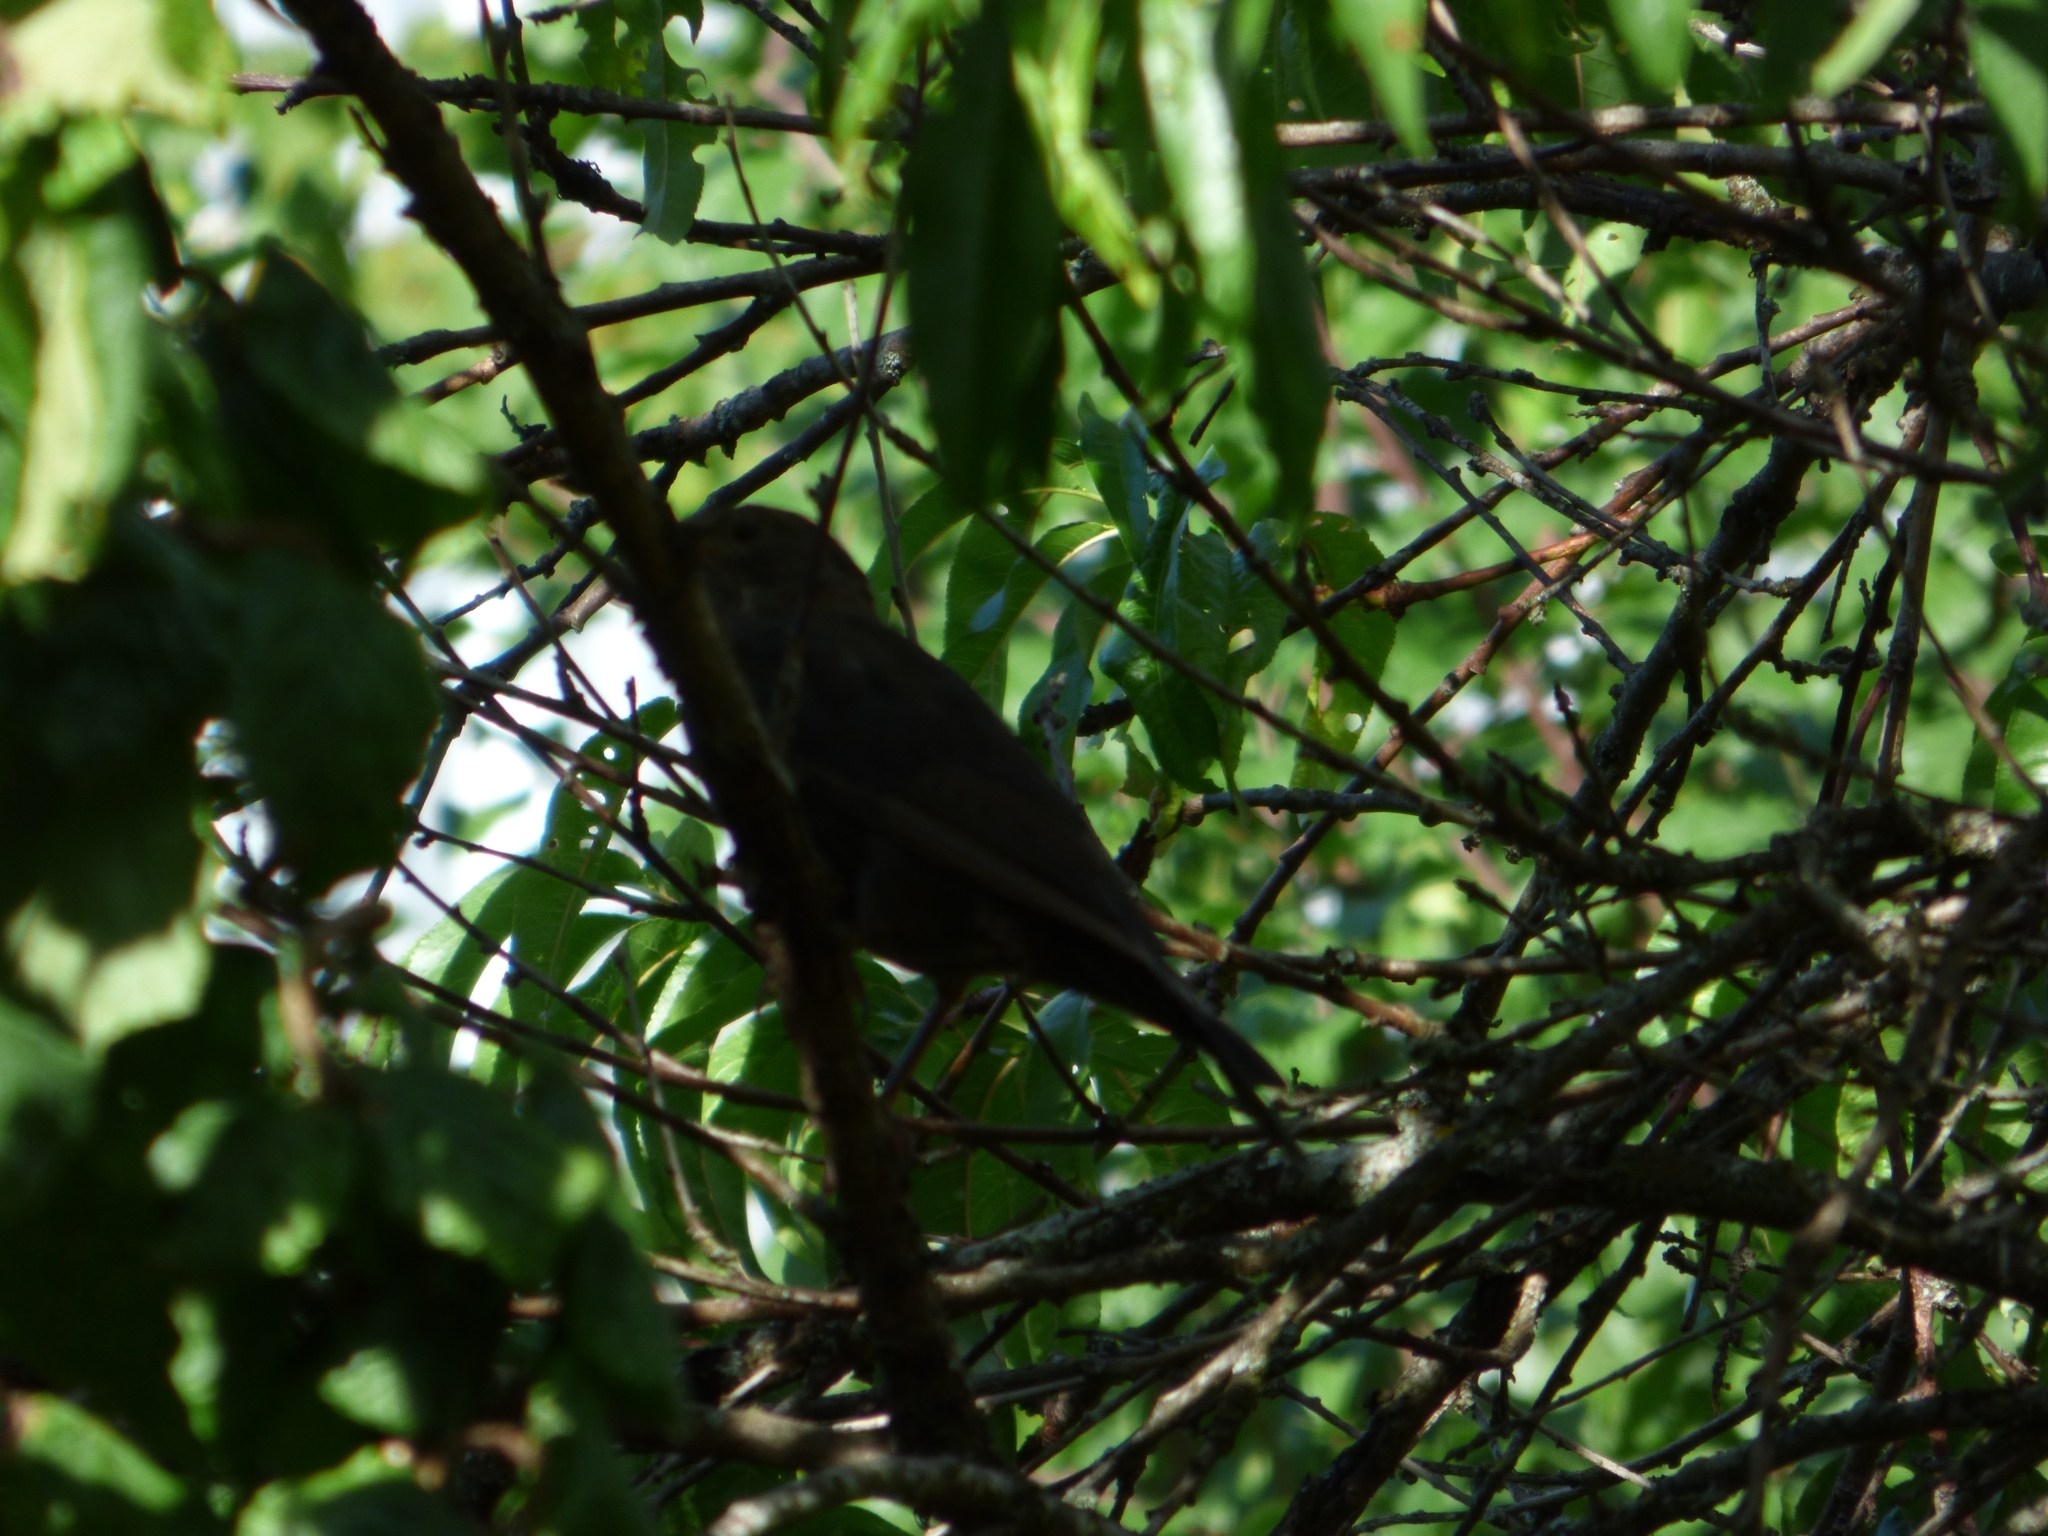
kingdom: Animalia
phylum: Chordata
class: Aves
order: Passeriformes
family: Turdidae
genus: Turdus
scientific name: Turdus merula
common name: Common blackbird
